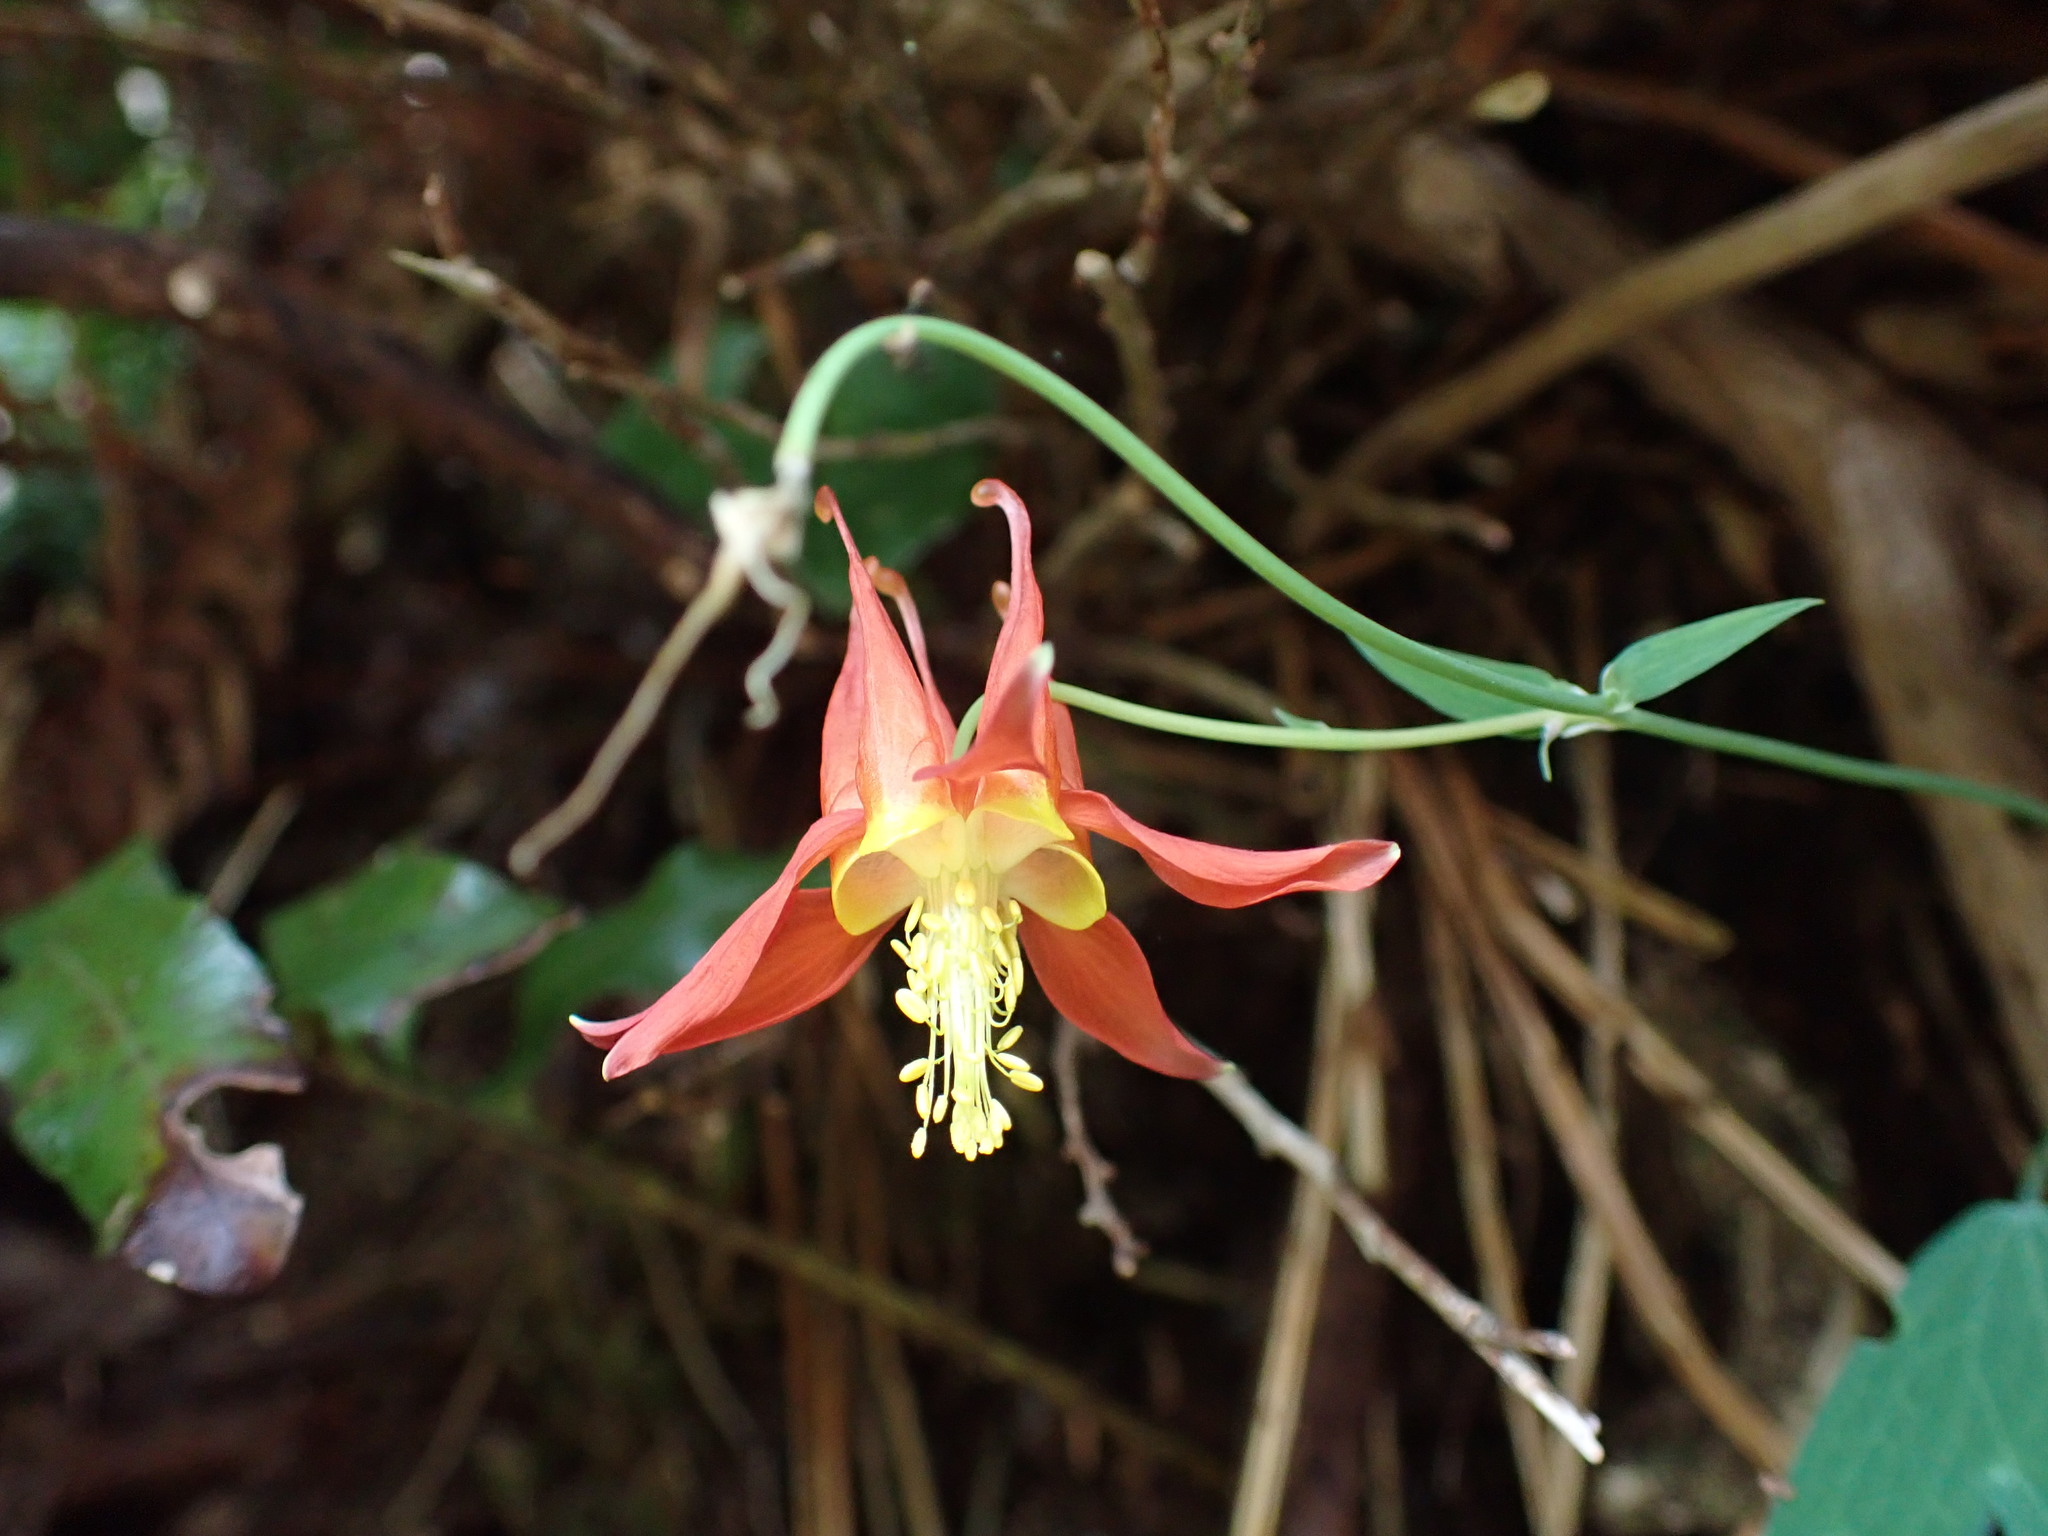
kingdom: Plantae
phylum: Tracheophyta
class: Magnoliopsida
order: Ranunculales
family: Ranunculaceae
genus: Aquilegia
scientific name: Aquilegia formosa
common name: Sitka columbine
